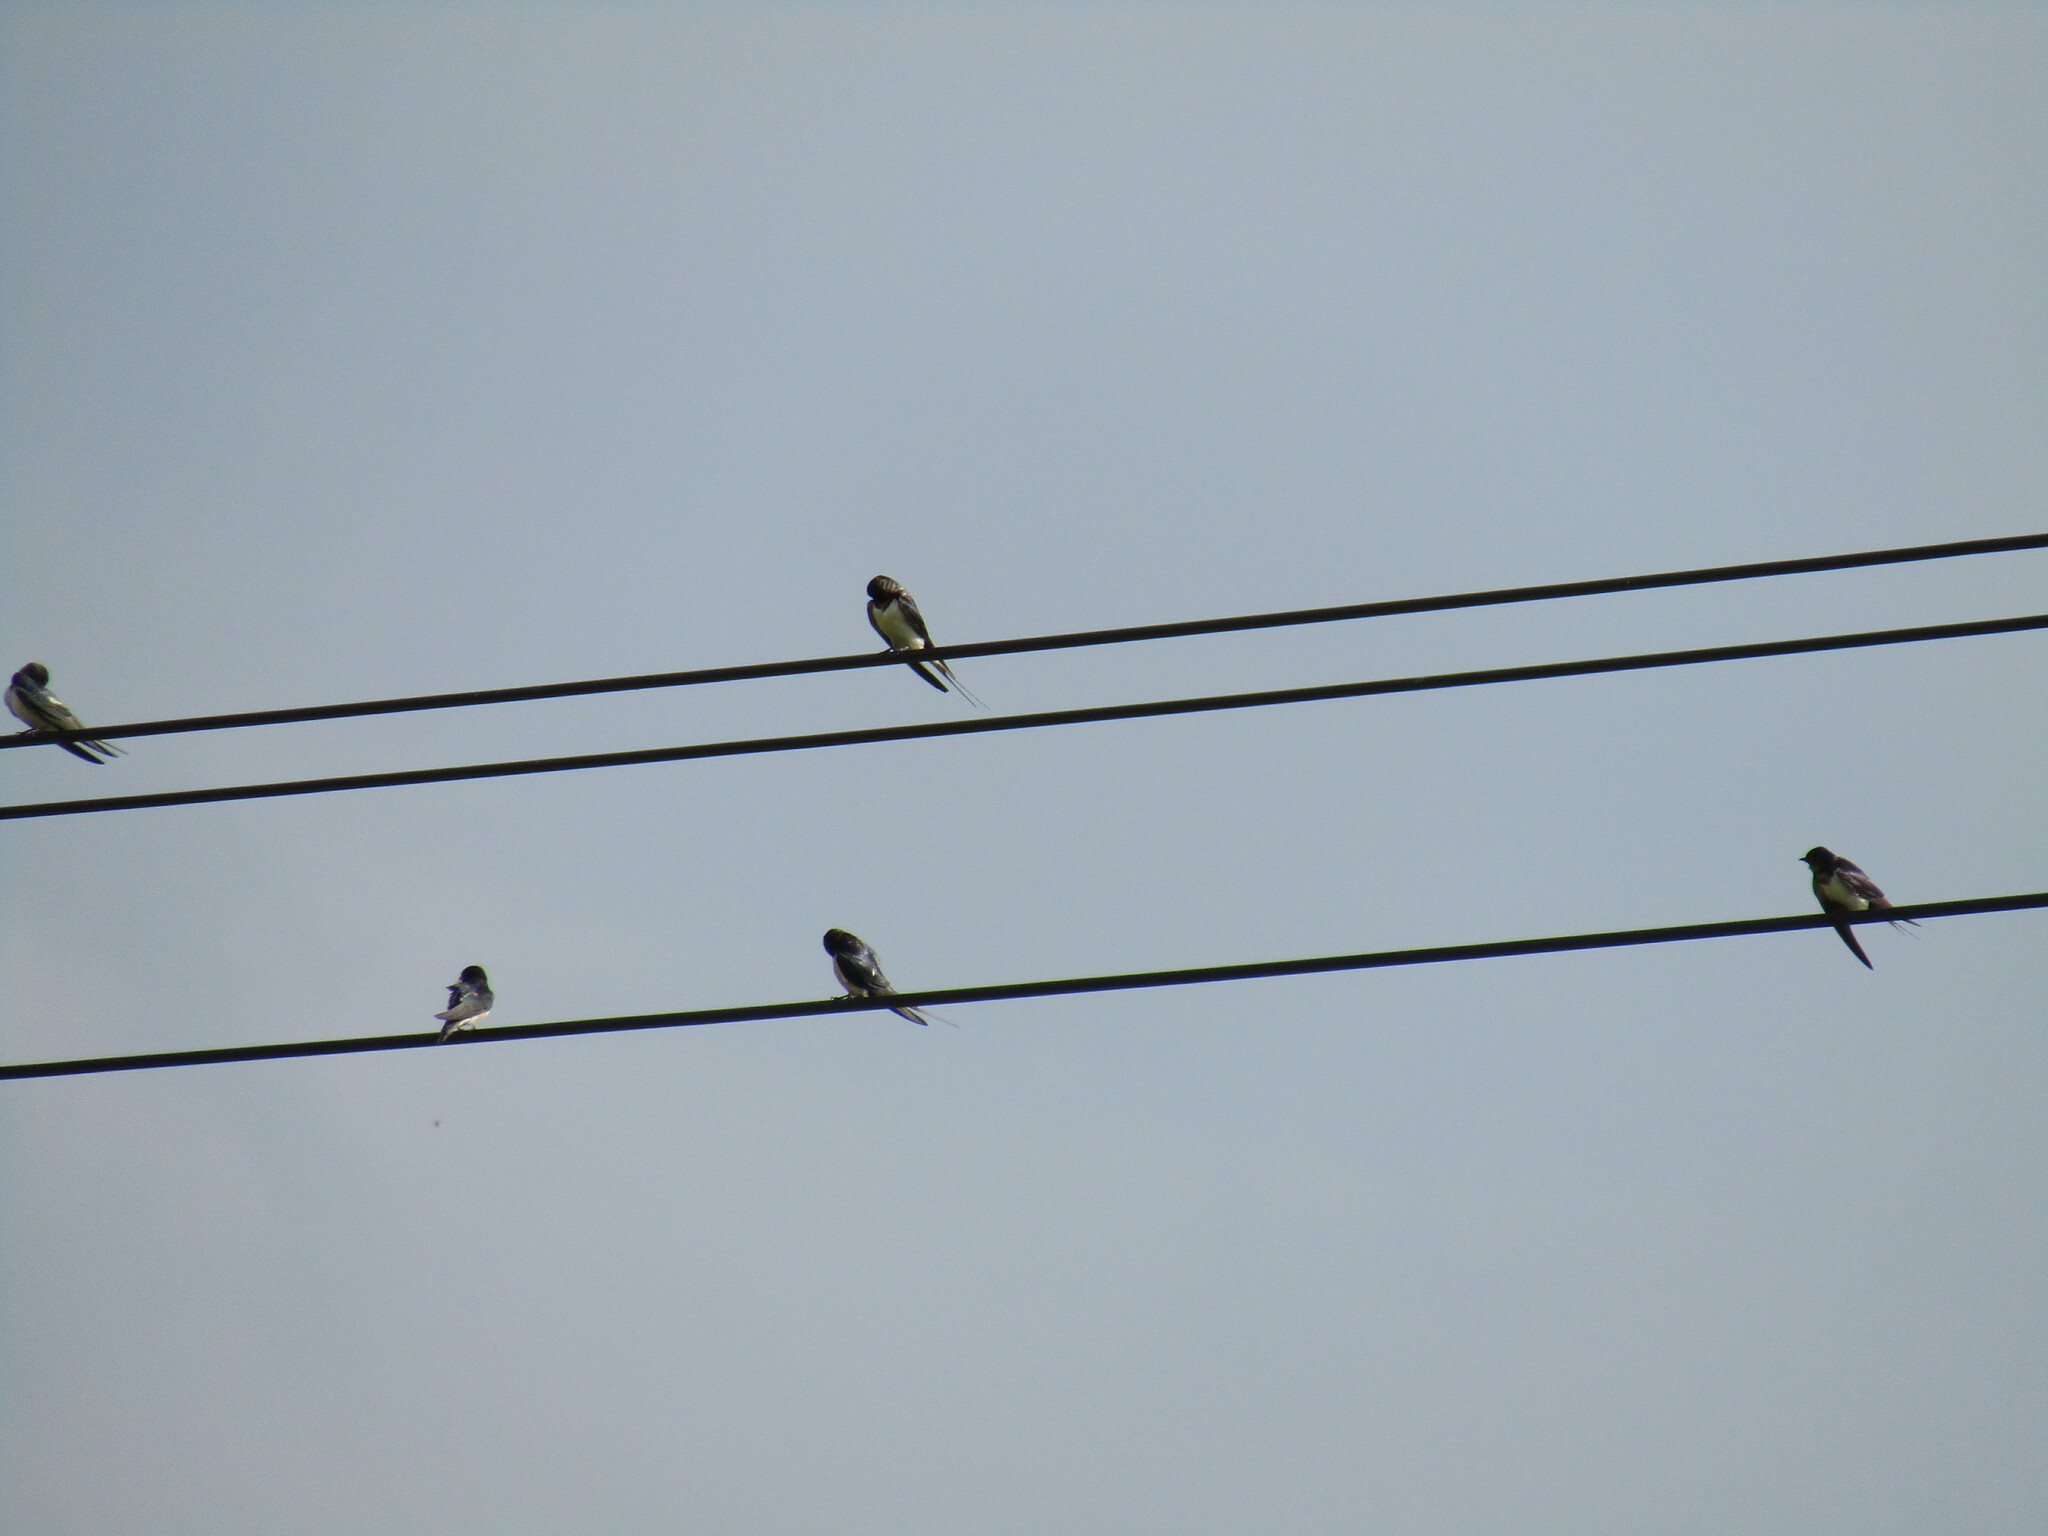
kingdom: Animalia
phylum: Chordata
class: Aves
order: Passeriformes
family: Hirundinidae
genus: Hirundo
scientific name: Hirundo rustica
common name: Barn swallow
